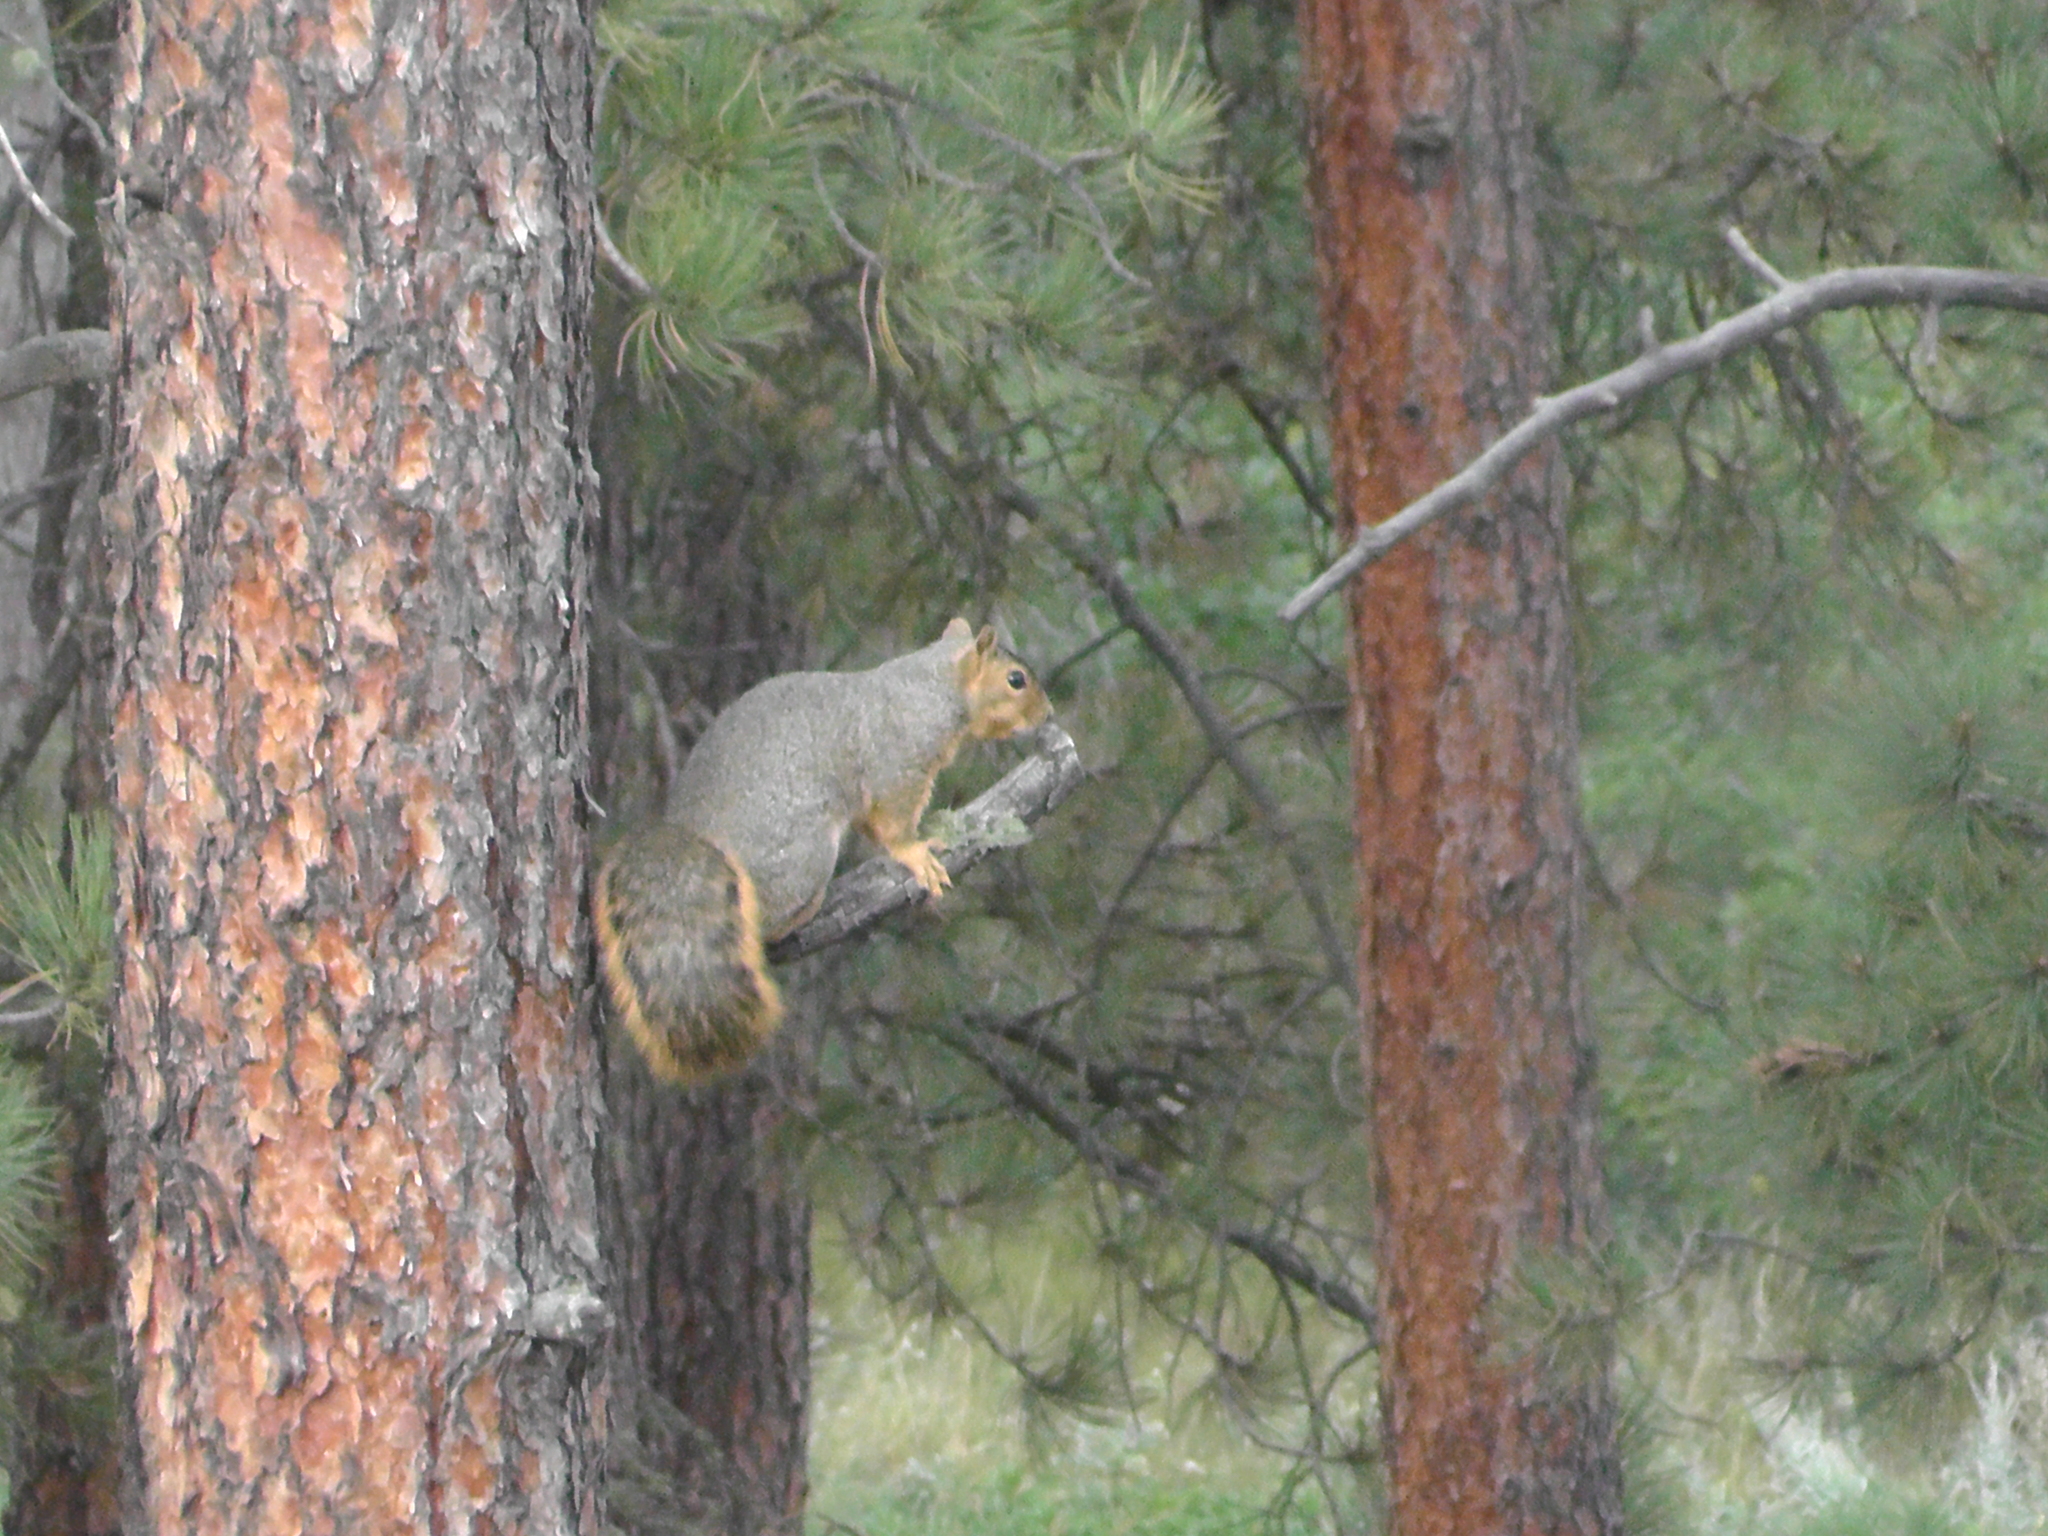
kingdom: Animalia
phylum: Chordata
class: Mammalia
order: Rodentia
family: Sciuridae
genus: Sciurus
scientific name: Sciurus niger
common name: Fox squirrel
